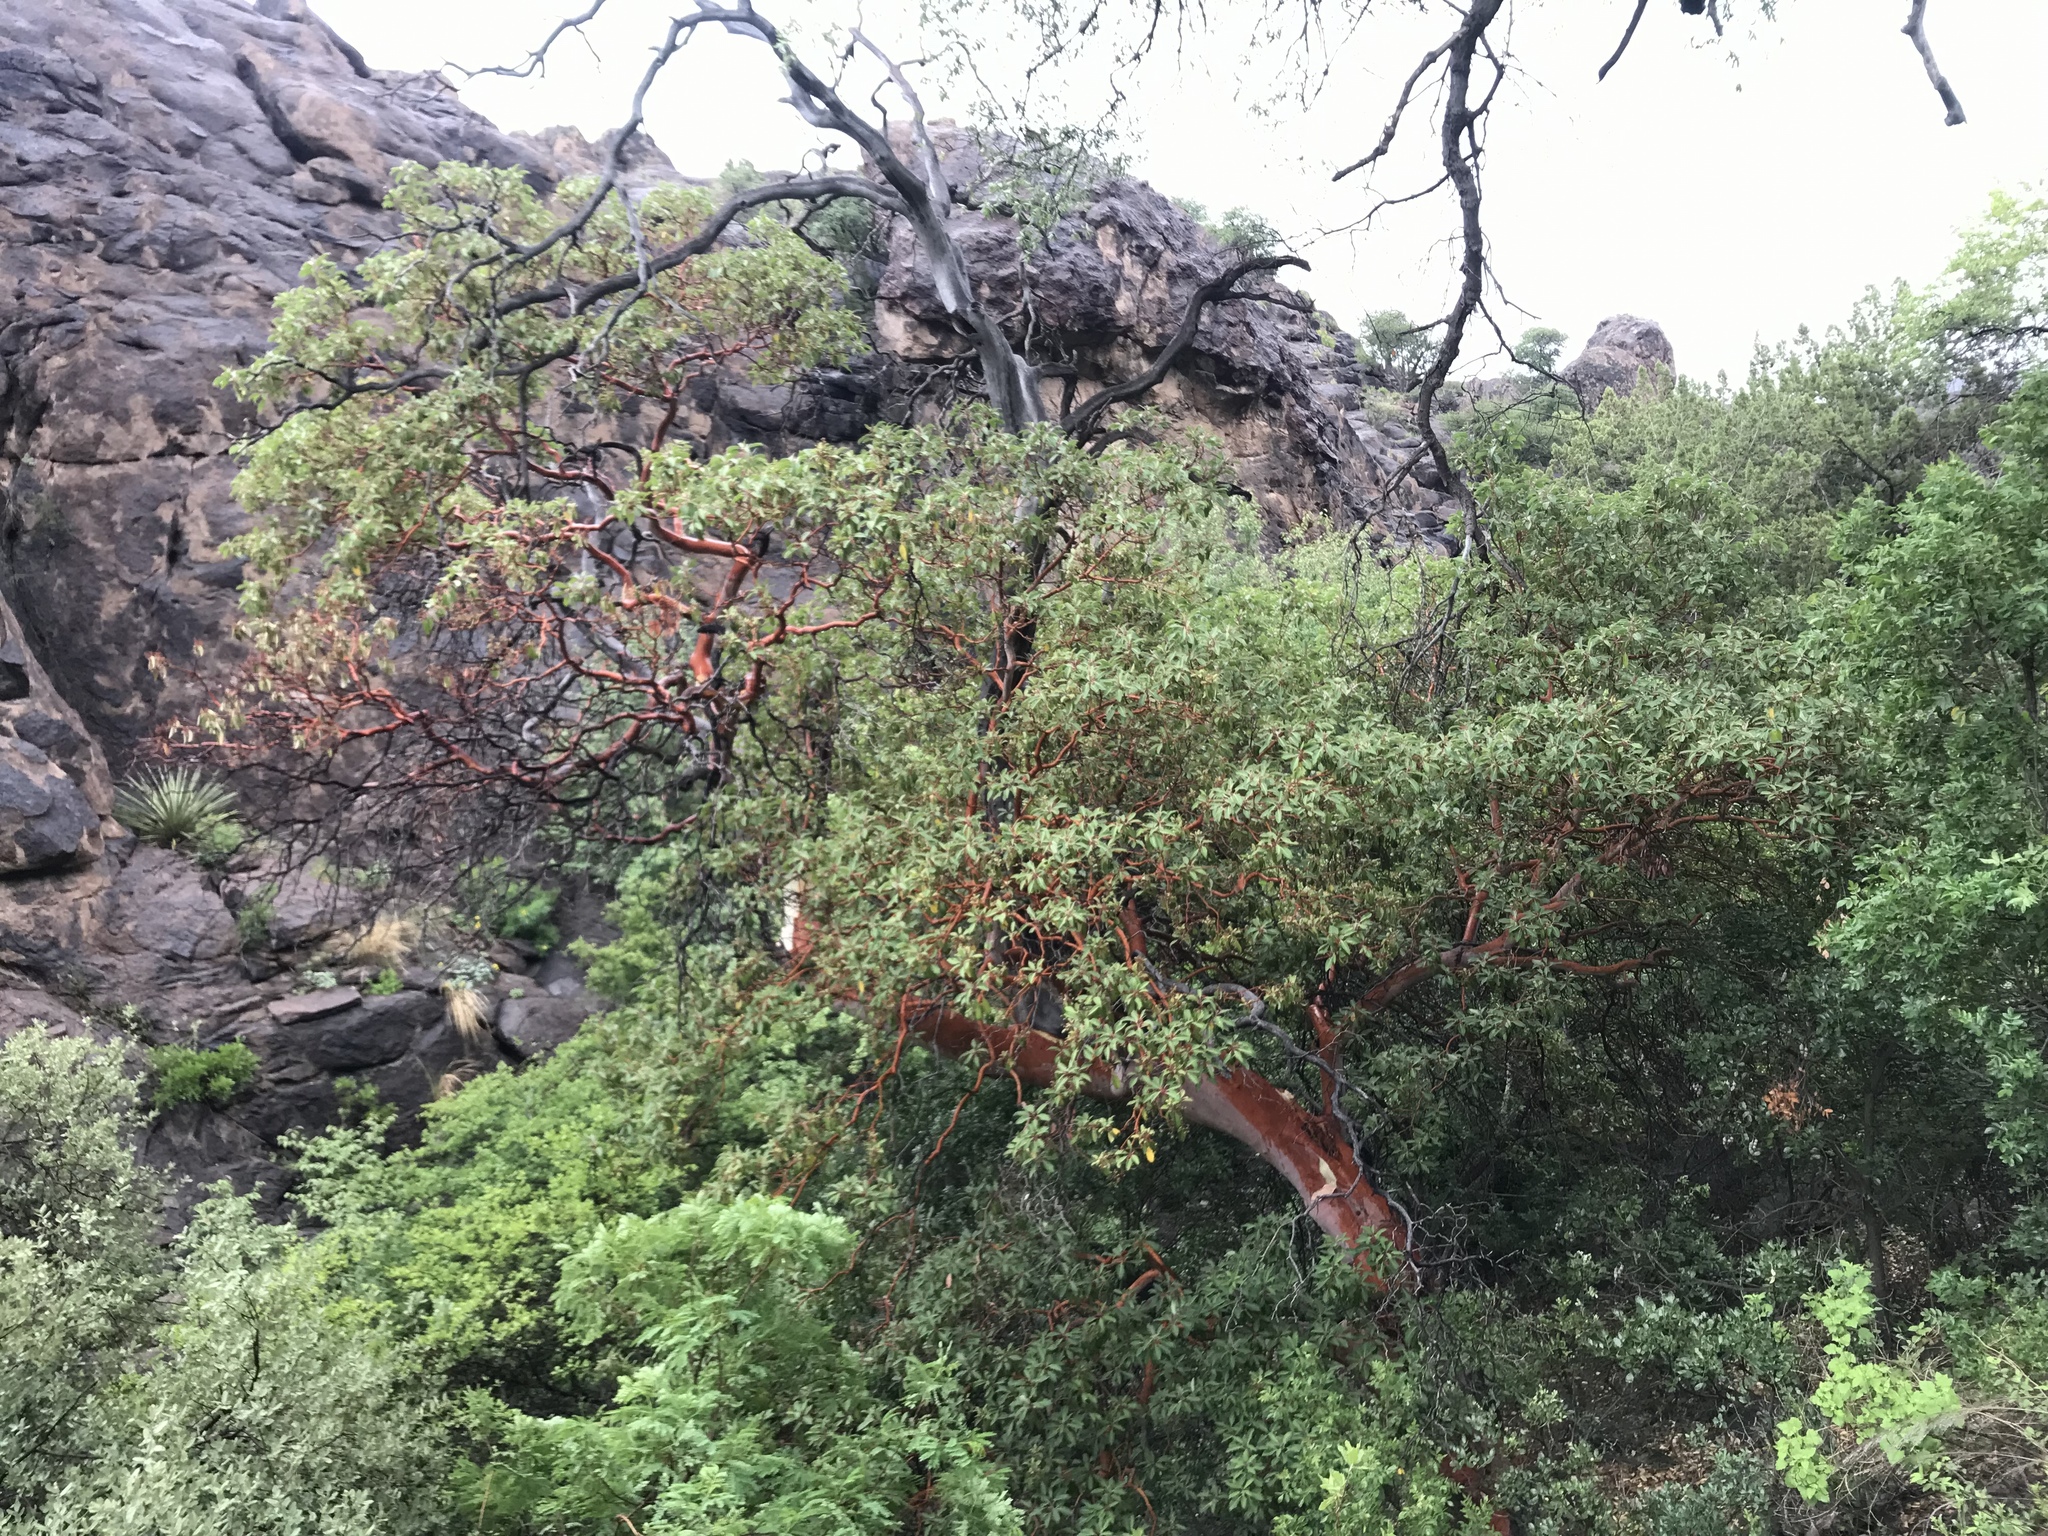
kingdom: Plantae
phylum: Tracheophyta
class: Magnoliopsida
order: Ericales
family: Ericaceae
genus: Arbutus
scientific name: Arbutus xalapensis
